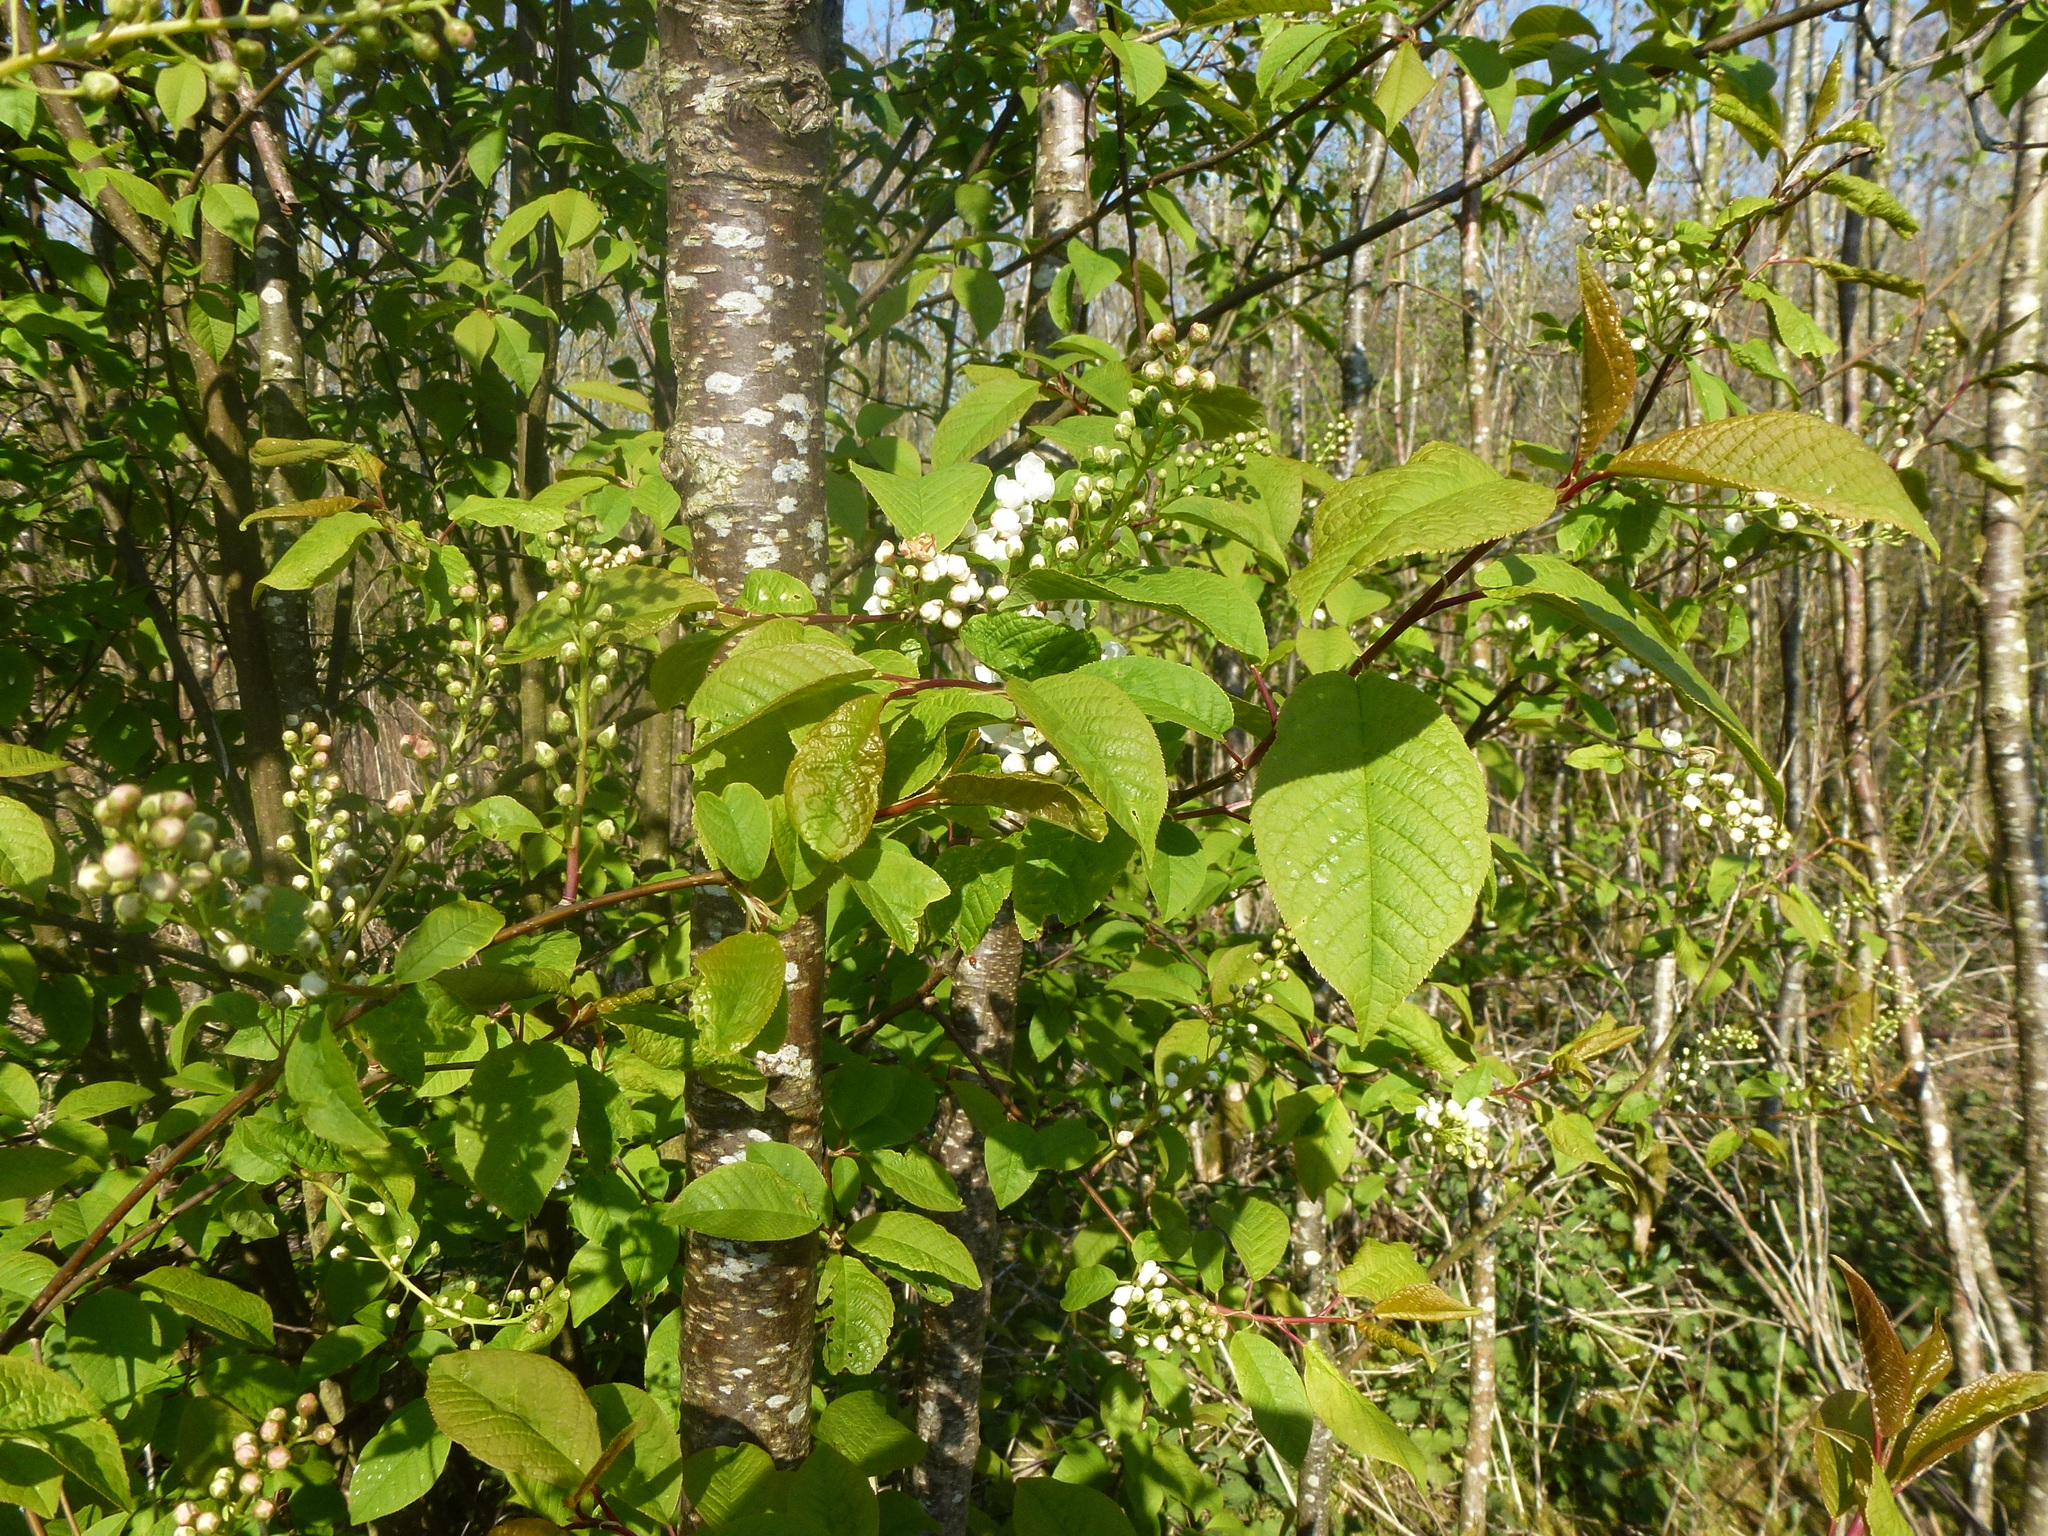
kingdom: Plantae
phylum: Tracheophyta
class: Magnoliopsida
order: Rosales
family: Rosaceae
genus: Prunus
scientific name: Prunus padus
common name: Bird cherry
